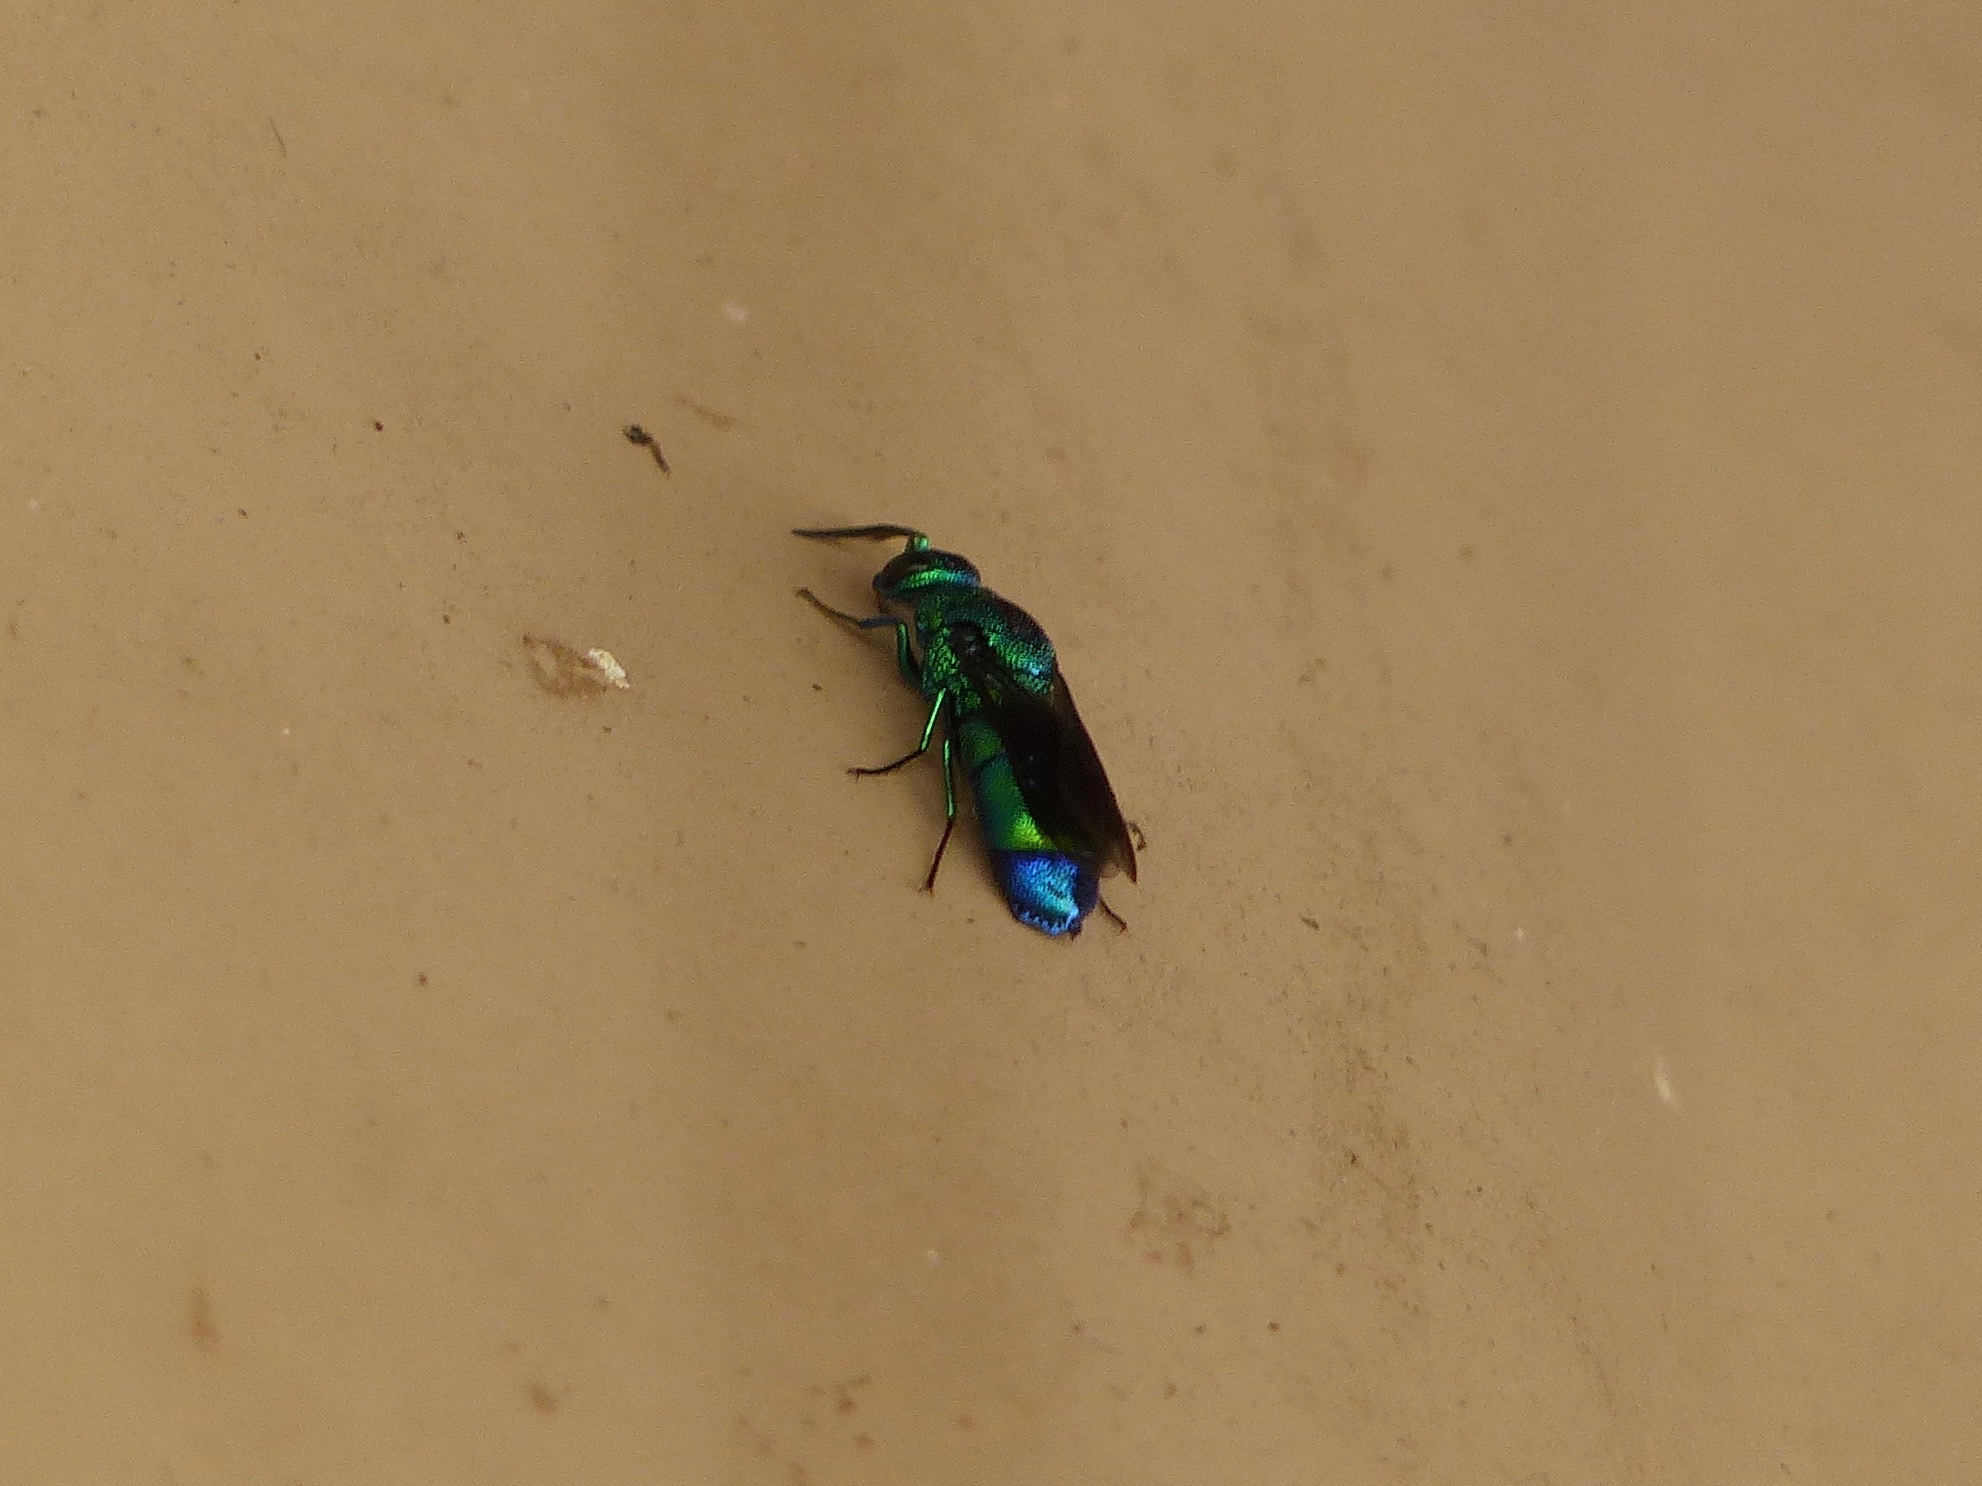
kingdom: Animalia
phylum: Arthropoda
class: Insecta
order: Hymenoptera
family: Chrysididae
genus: Chrysis
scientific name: Chrysis angolensis
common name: Cuckoo wasp
